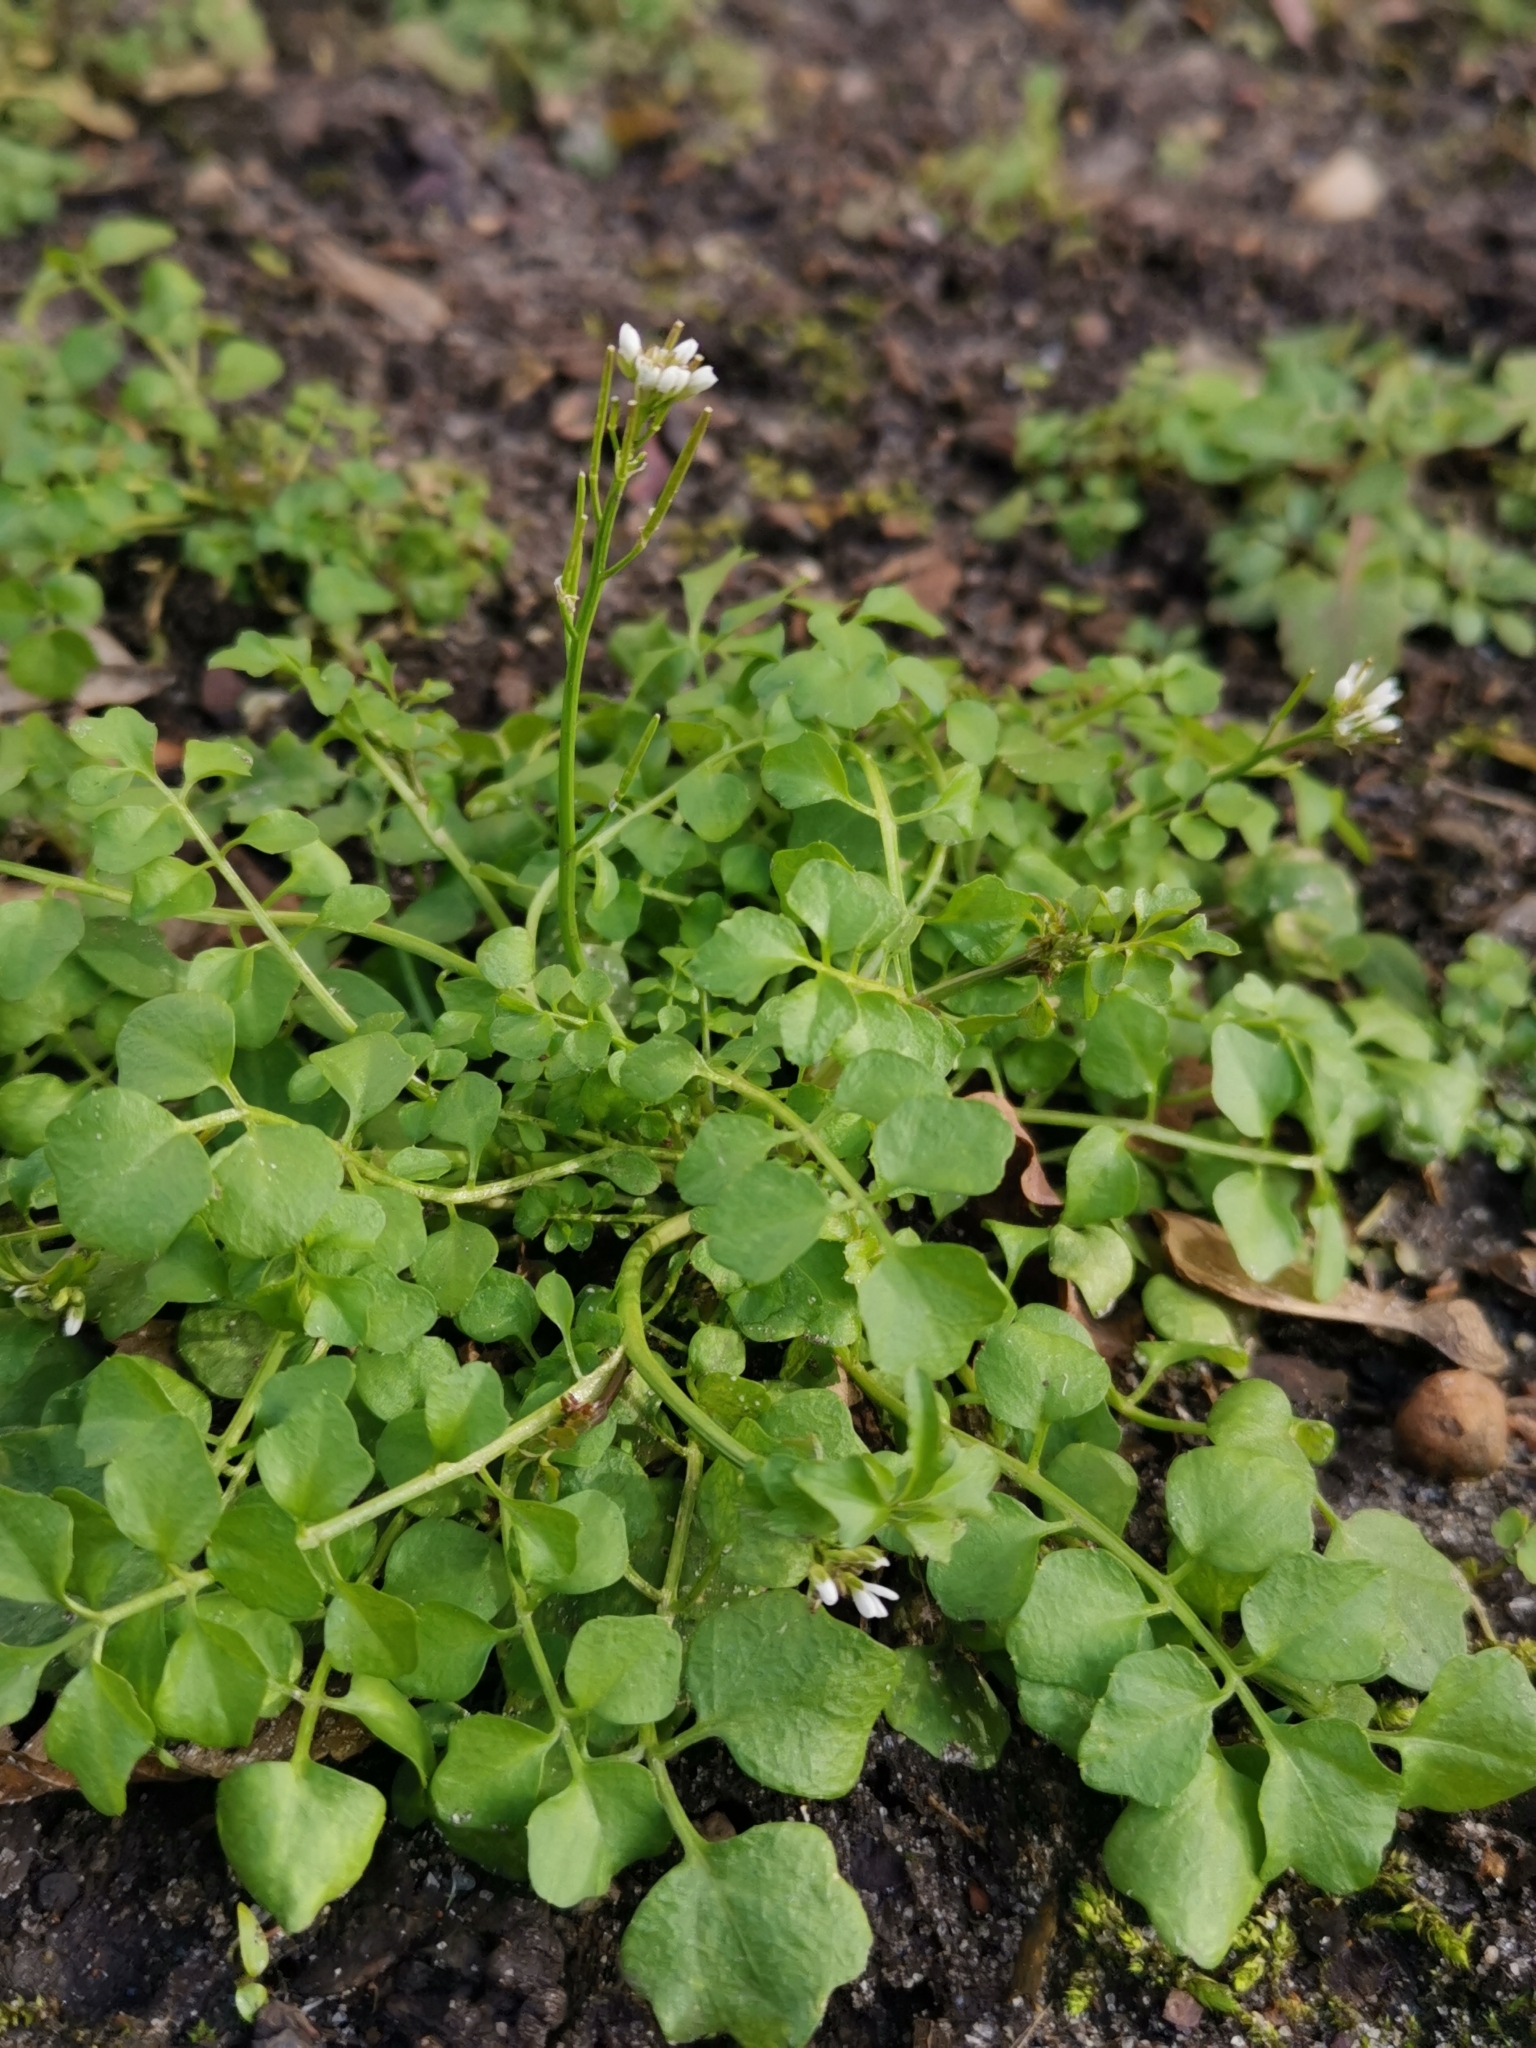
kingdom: Plantae
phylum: Tracheophyta
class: Magnoliopsida
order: Brassicales
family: Brassicaceae
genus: Cardamine
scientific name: Cardamine hirsuta
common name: Hairy bittercress
